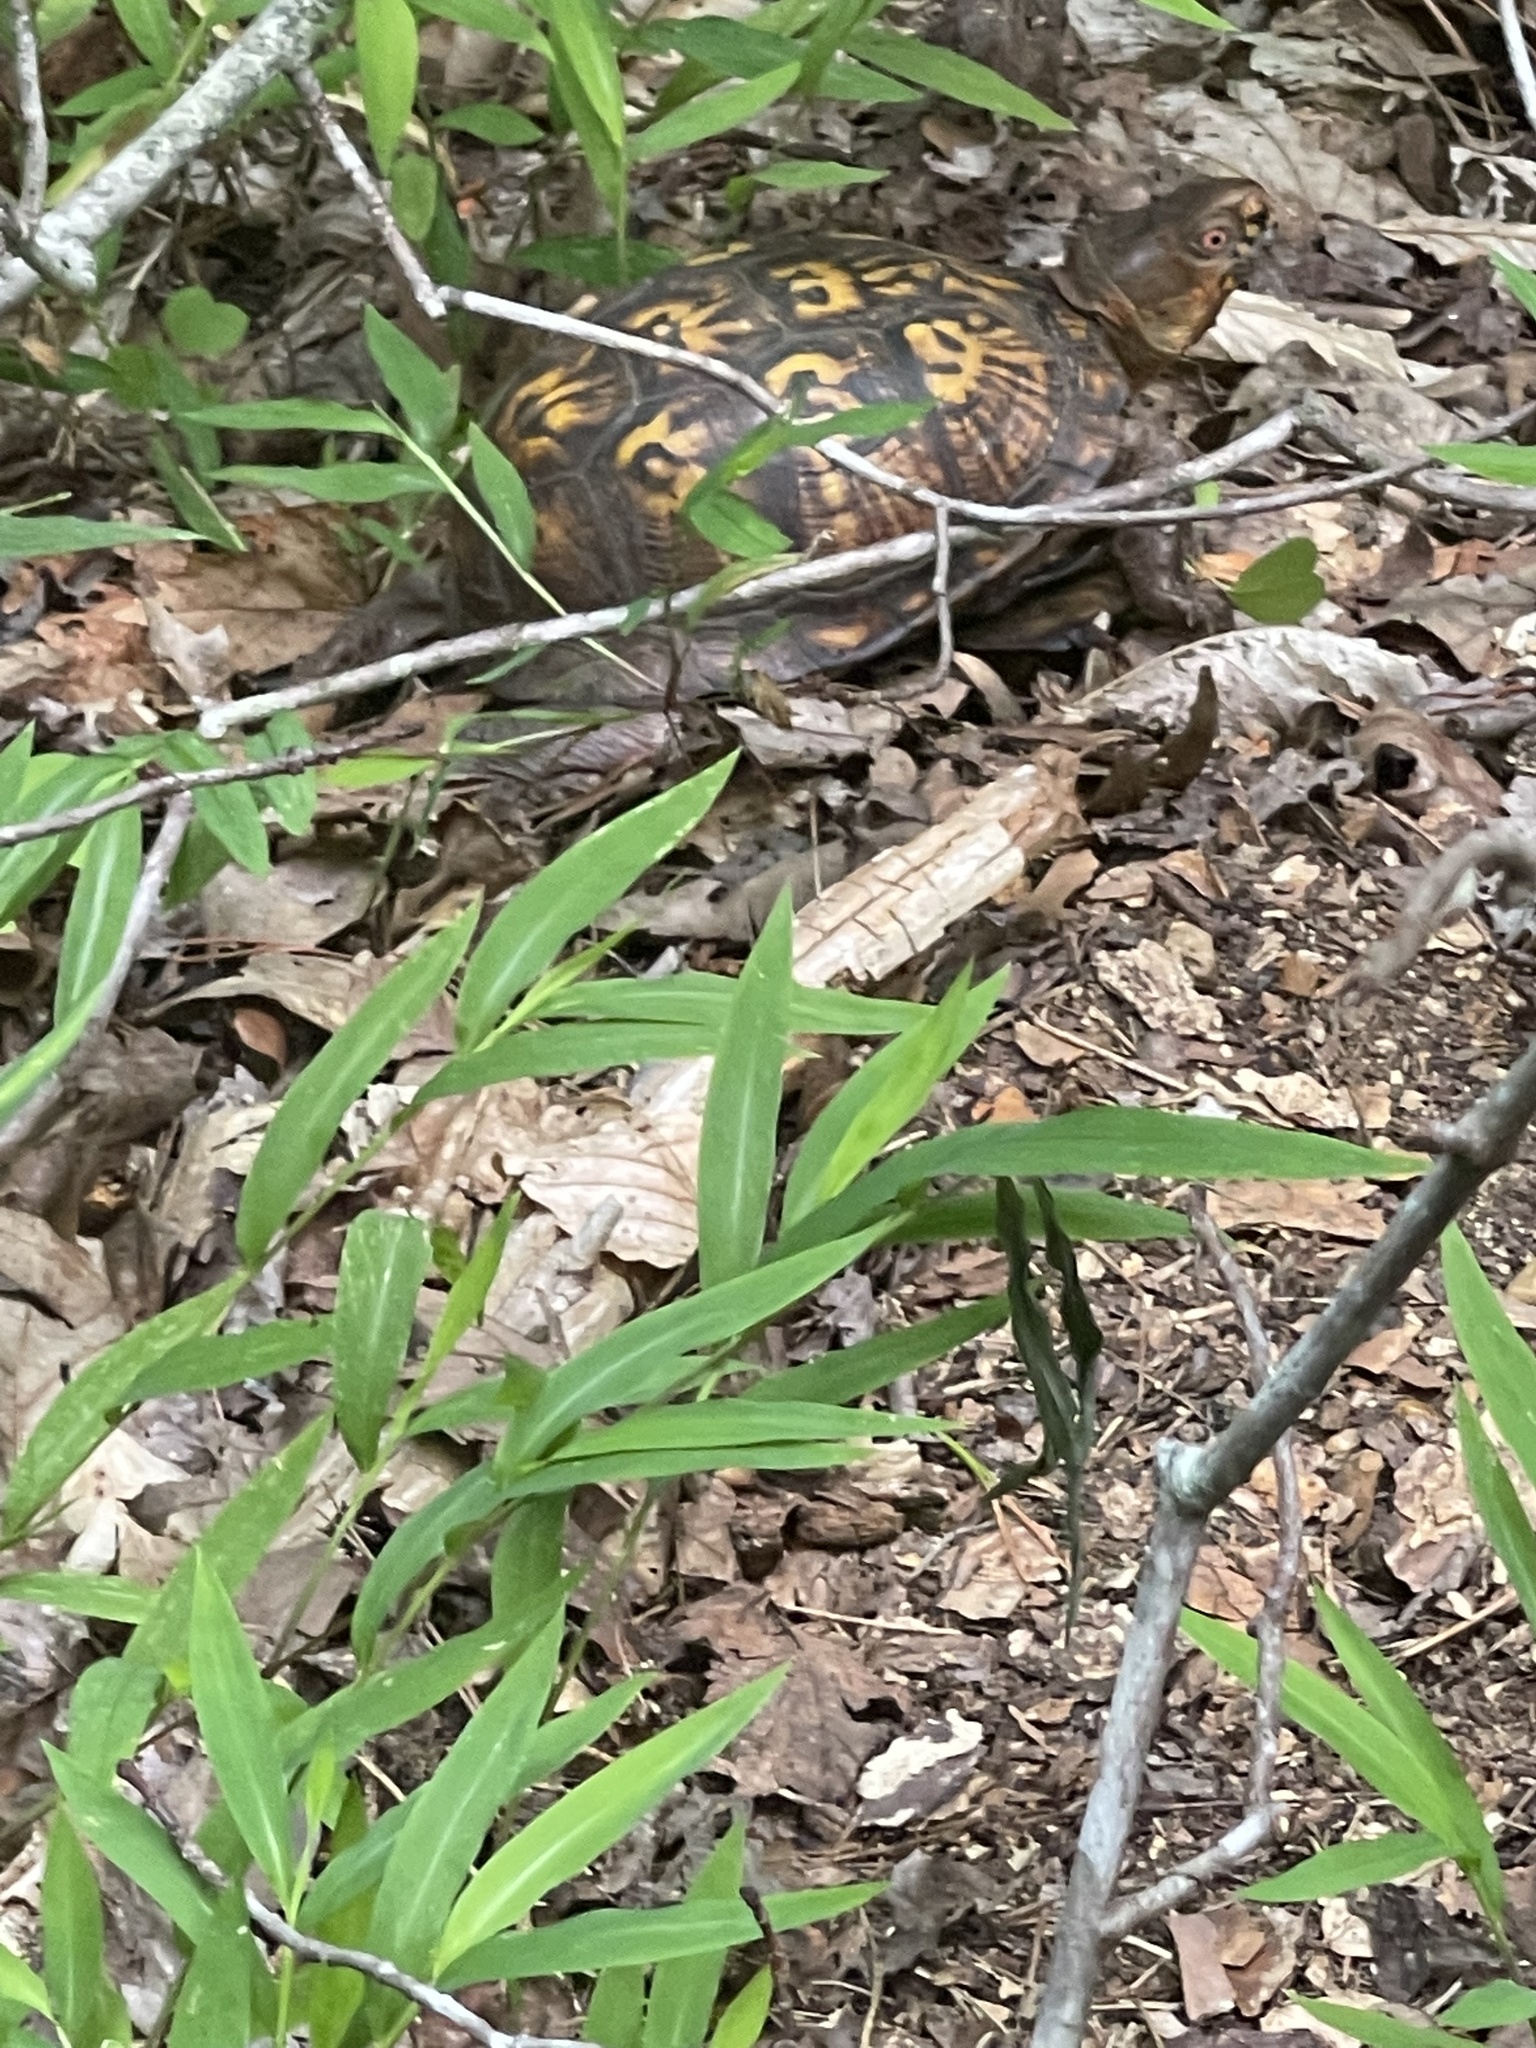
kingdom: Animalia
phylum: Chordata
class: Testudines
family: Emydidae
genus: Terrapene
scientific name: Terrapene carolina
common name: Common box turtle
